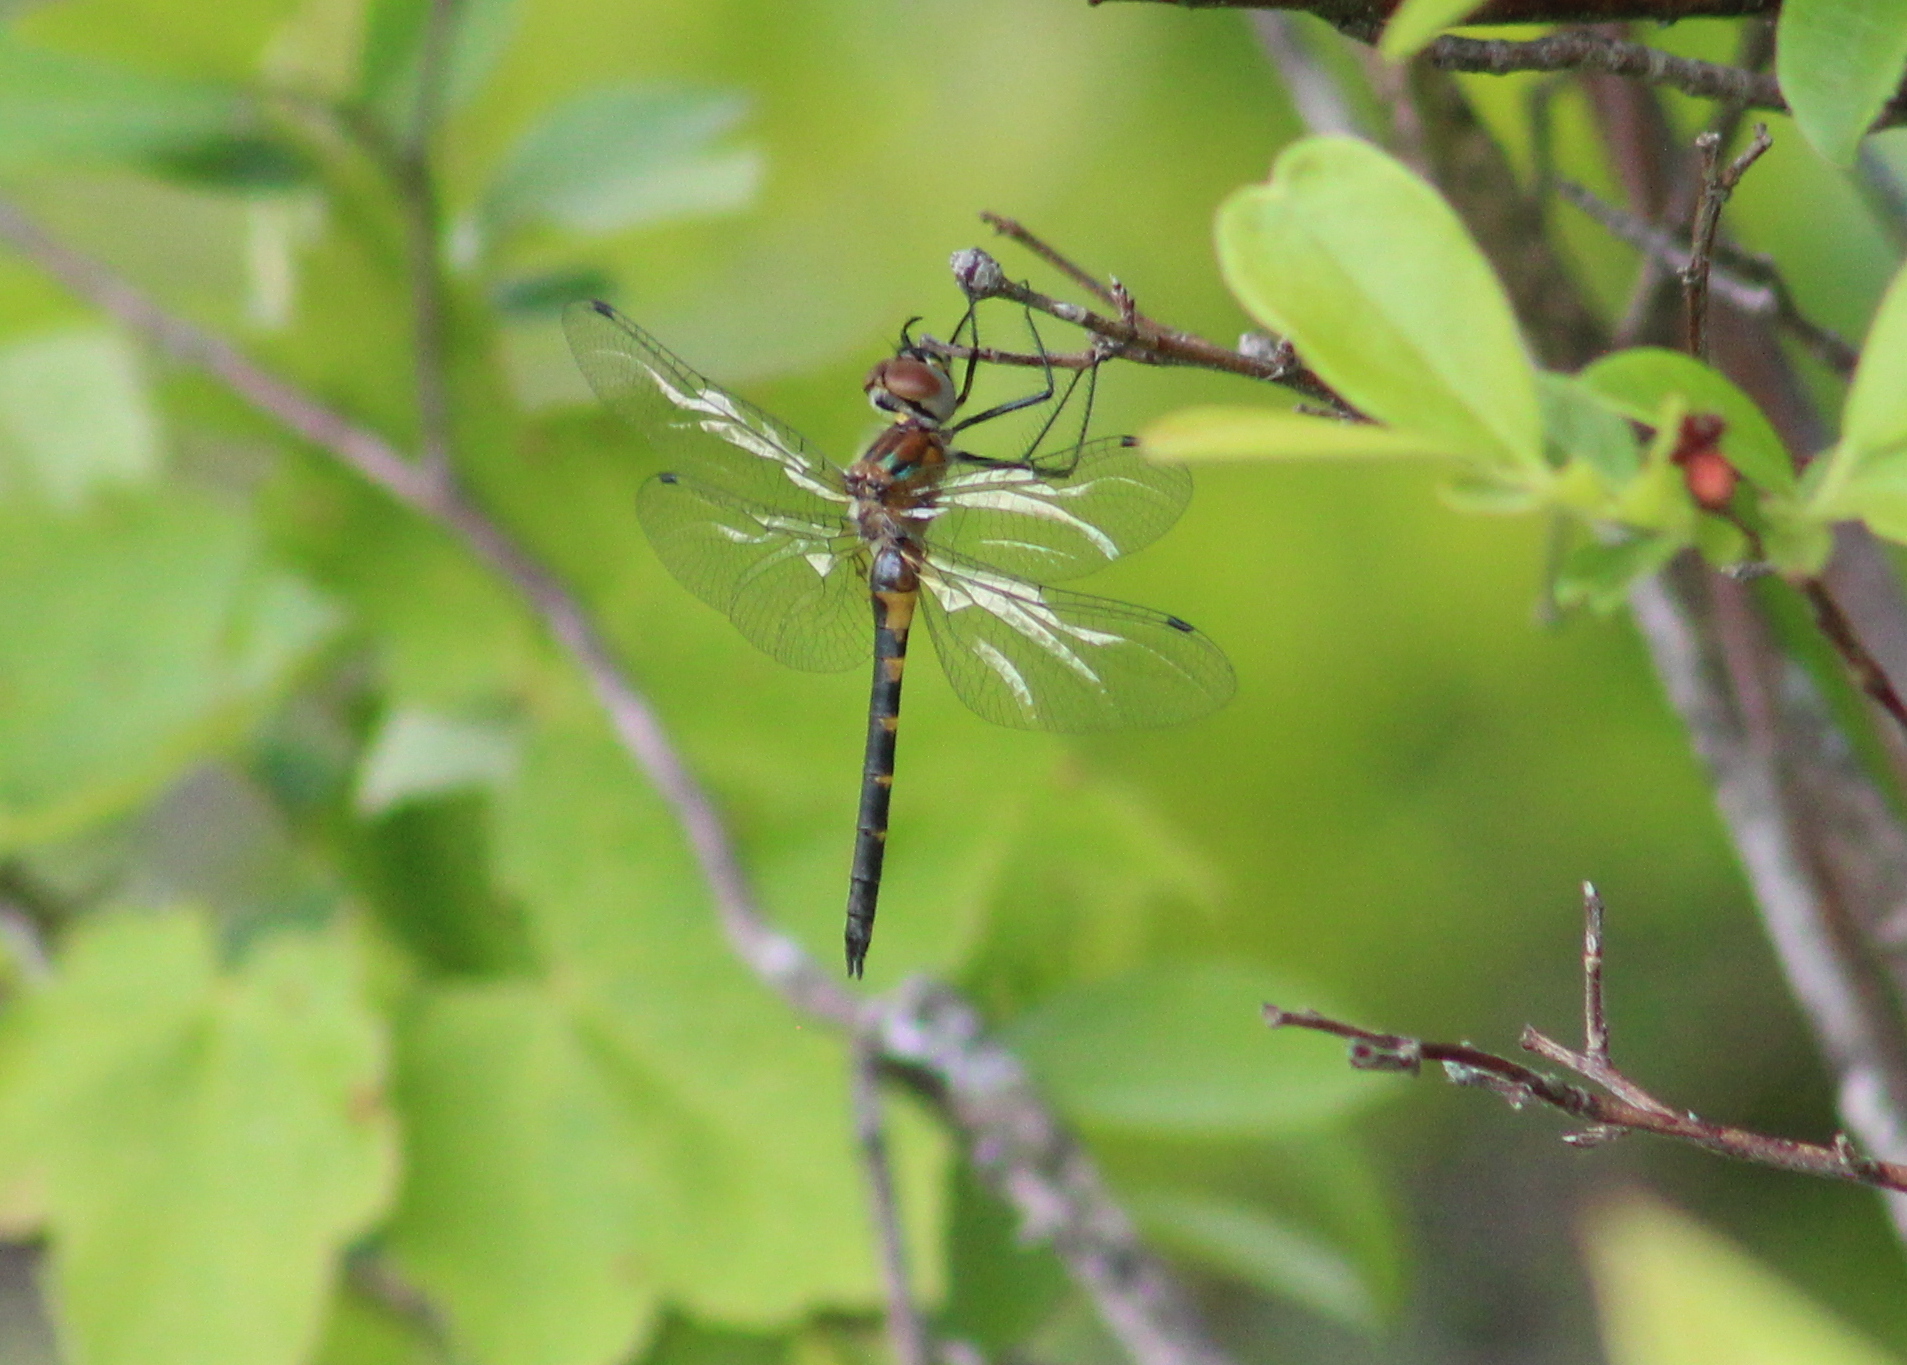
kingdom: Animalia
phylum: Arthropoda
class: Insecta
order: Odonata
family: Corduliidae
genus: Dorocordulia
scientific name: Dorocordulia lepida
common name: Petite emerald
